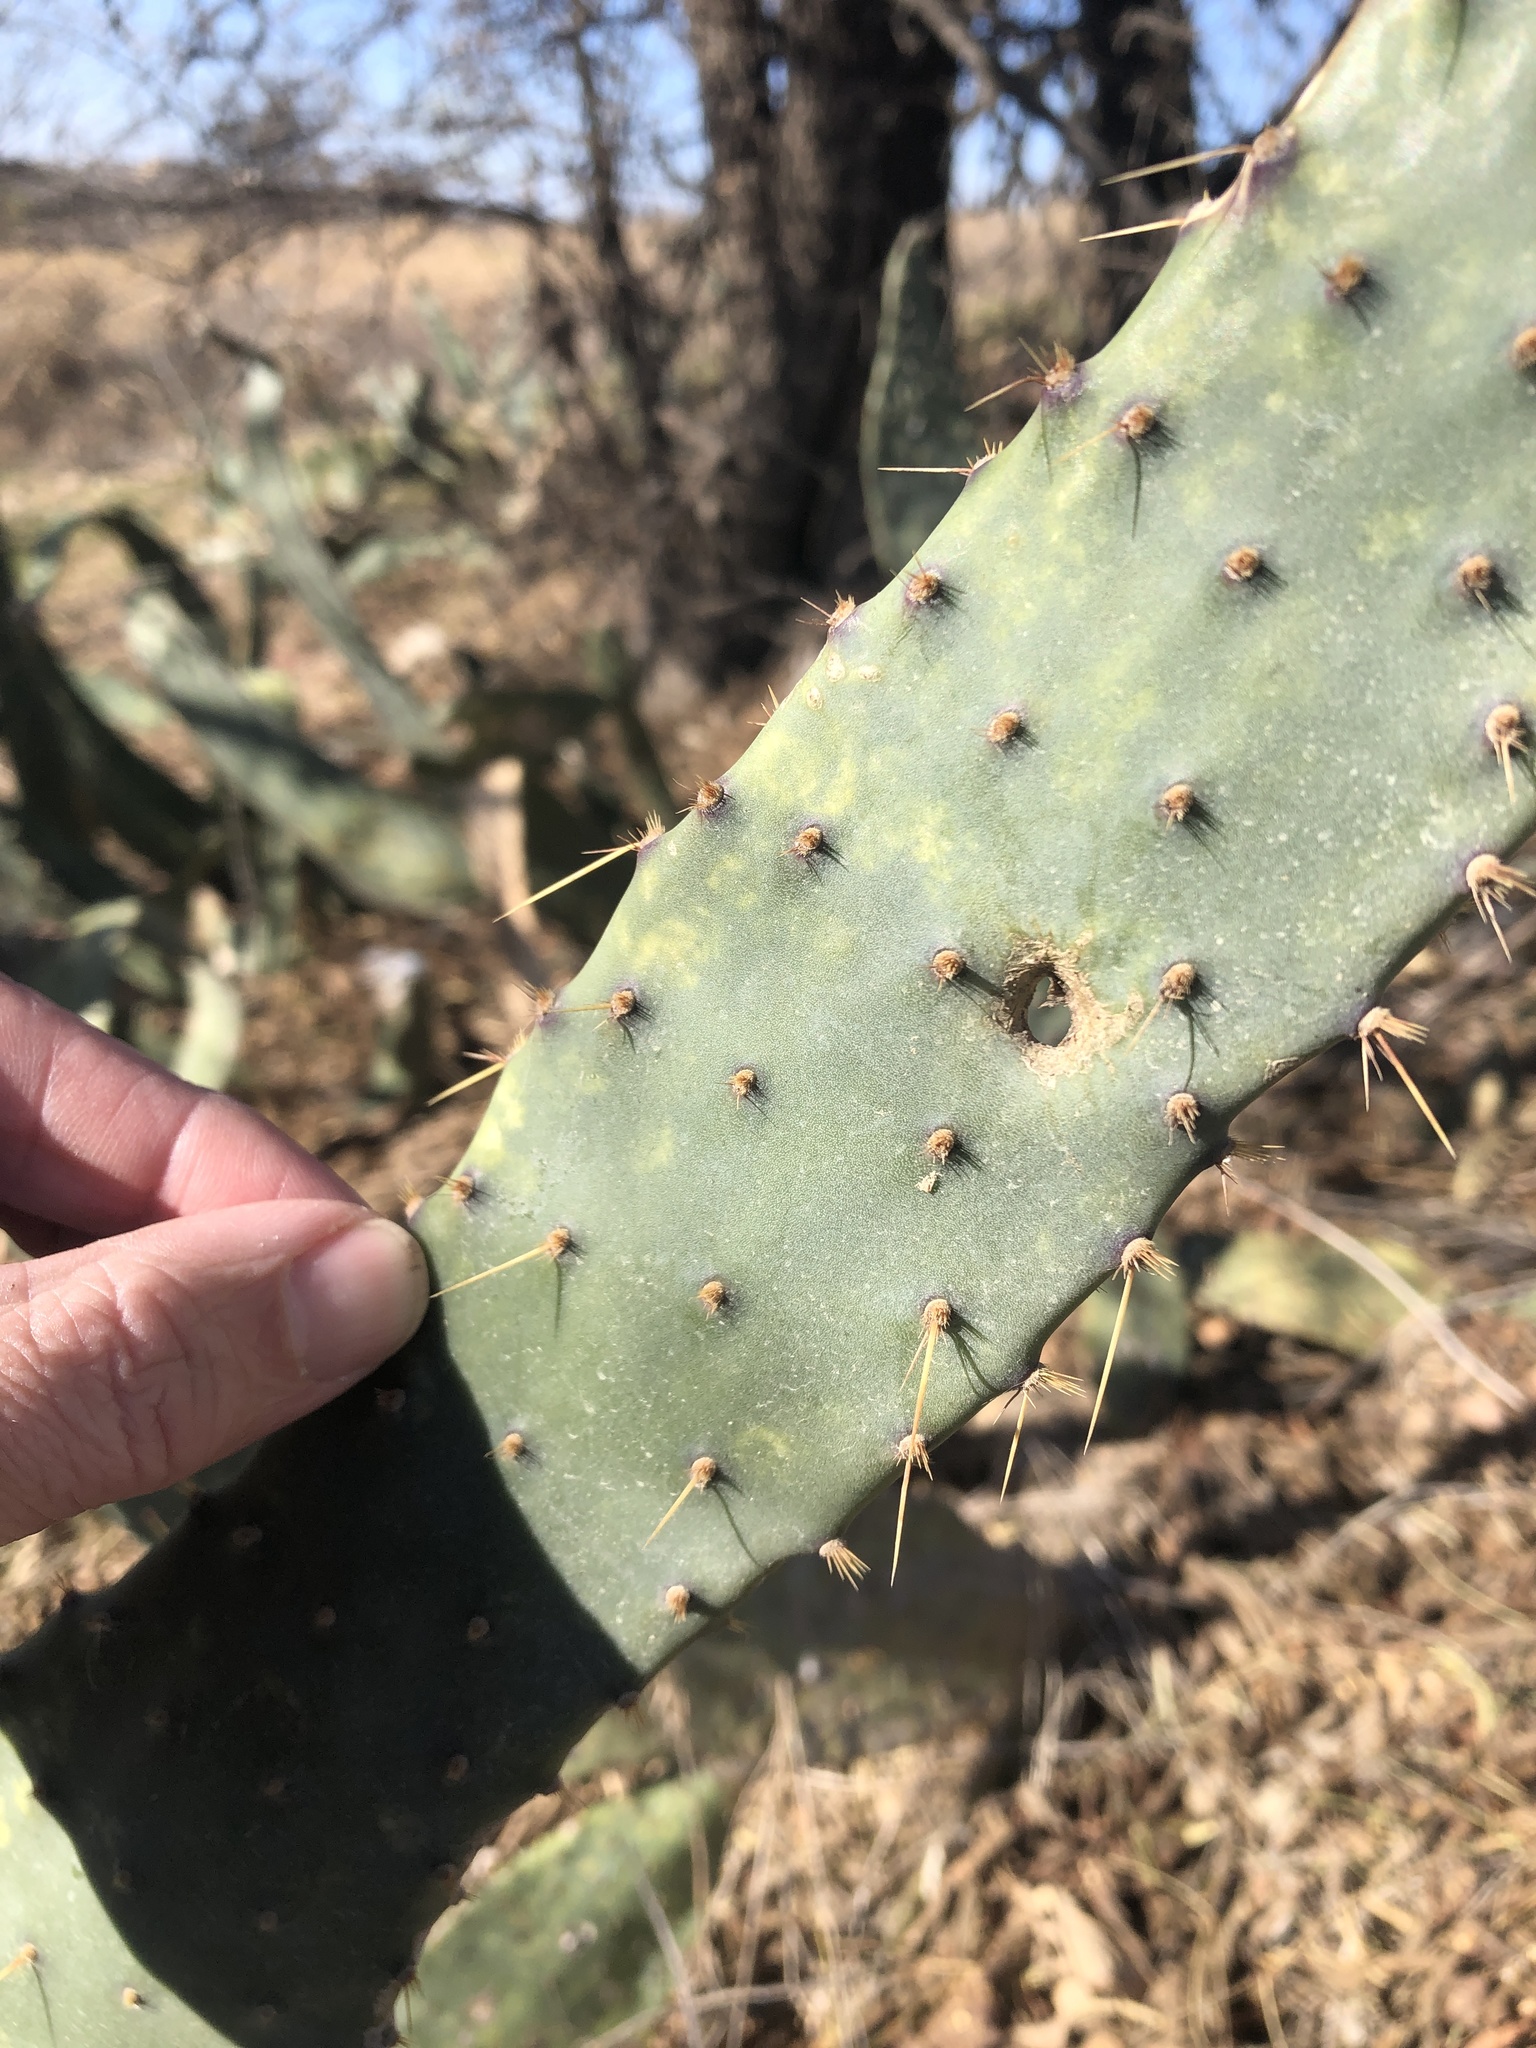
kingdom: Plantae
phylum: Tracheophyta
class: Magnoliopsida
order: Caryophyllales
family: Cactaceae
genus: Opuntia
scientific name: Opuntia engelmannii
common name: Cactus-apple
